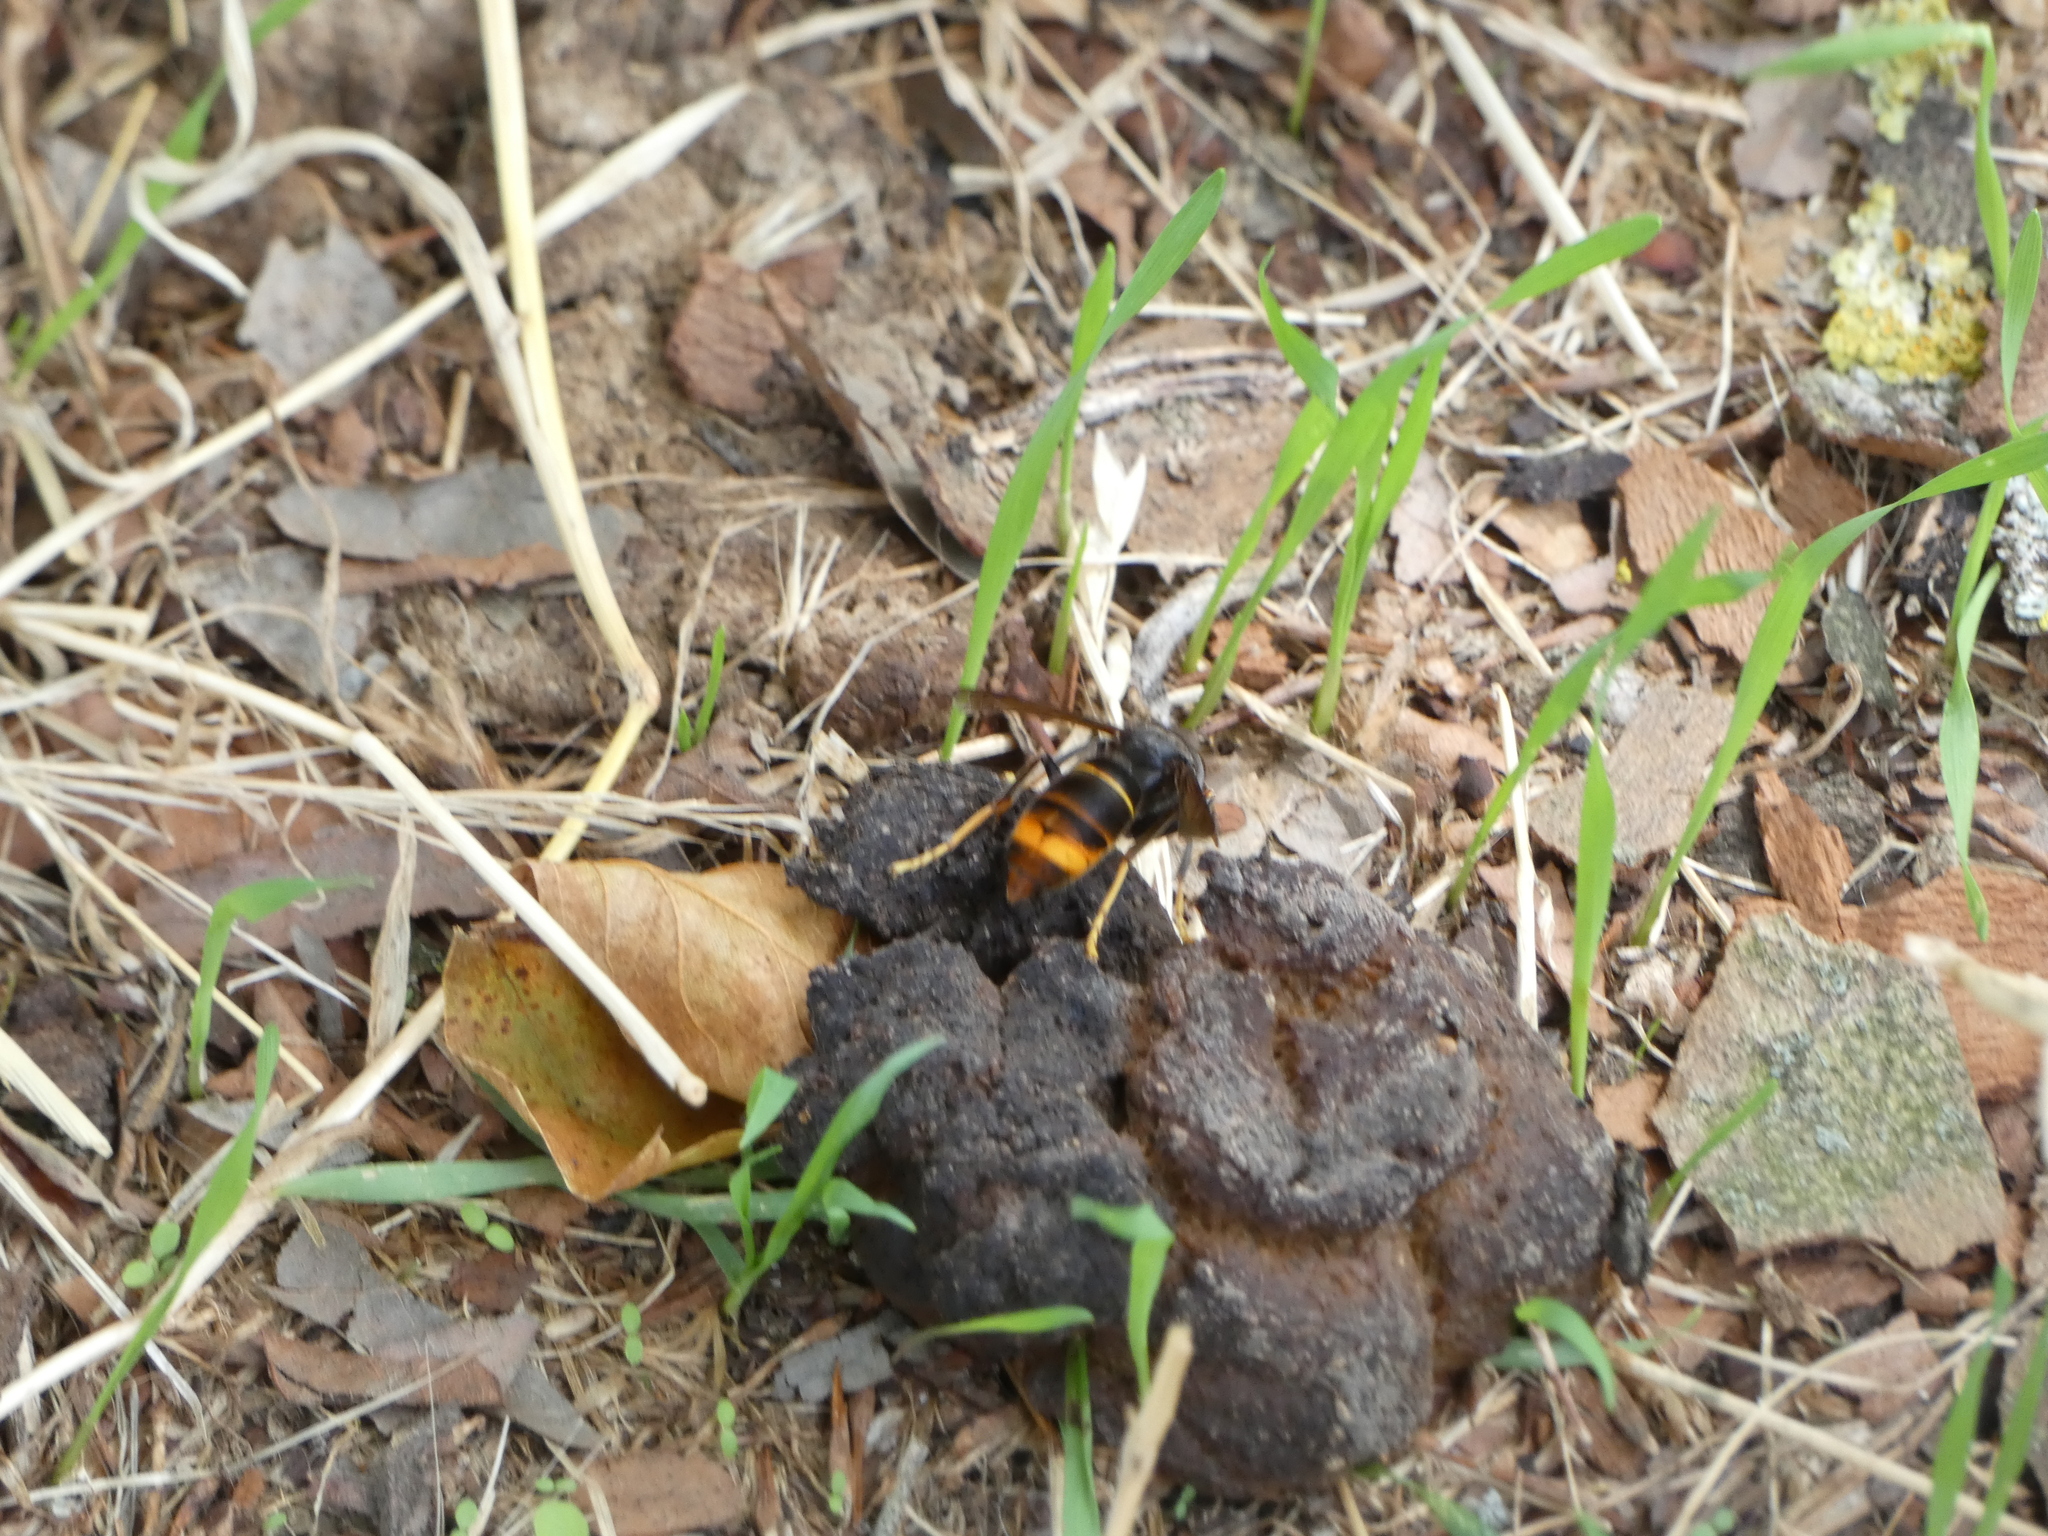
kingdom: Animalia
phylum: Arthropoda
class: Insecta
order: Hymenoptera
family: Vespidae
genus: Vespa
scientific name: Vespa velutina
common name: Asian hornet
